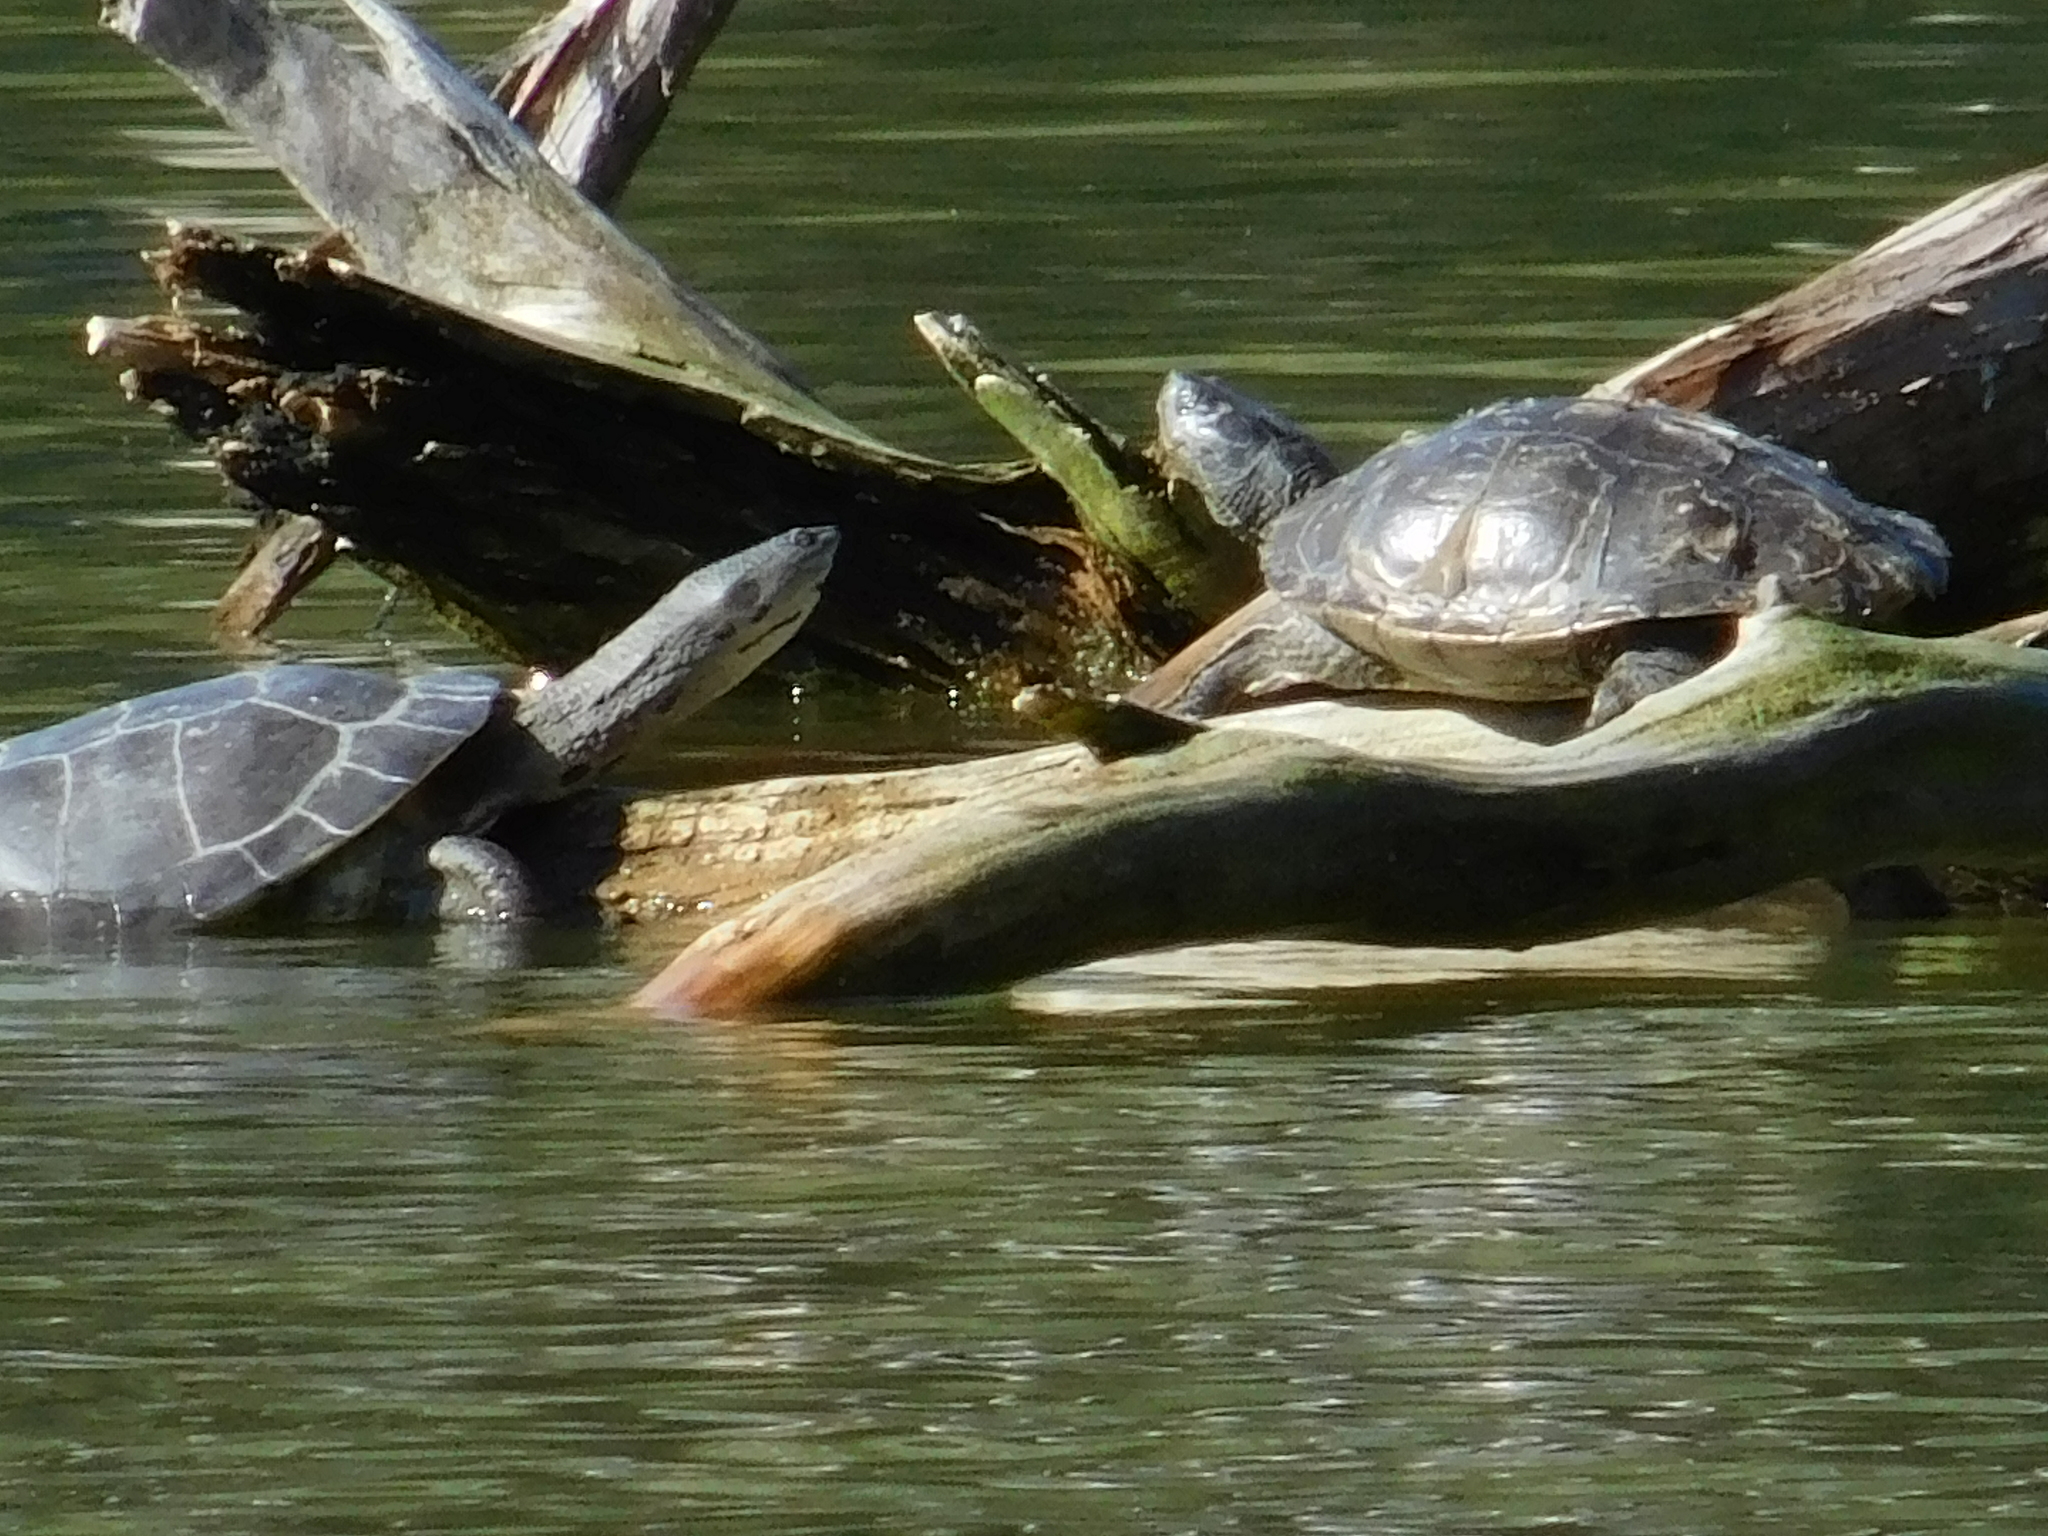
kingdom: Animalia
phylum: Chordata
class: Testudines
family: Emydidae
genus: Graptemys
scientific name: Graptemys pseudogeographica
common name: False map turtle
